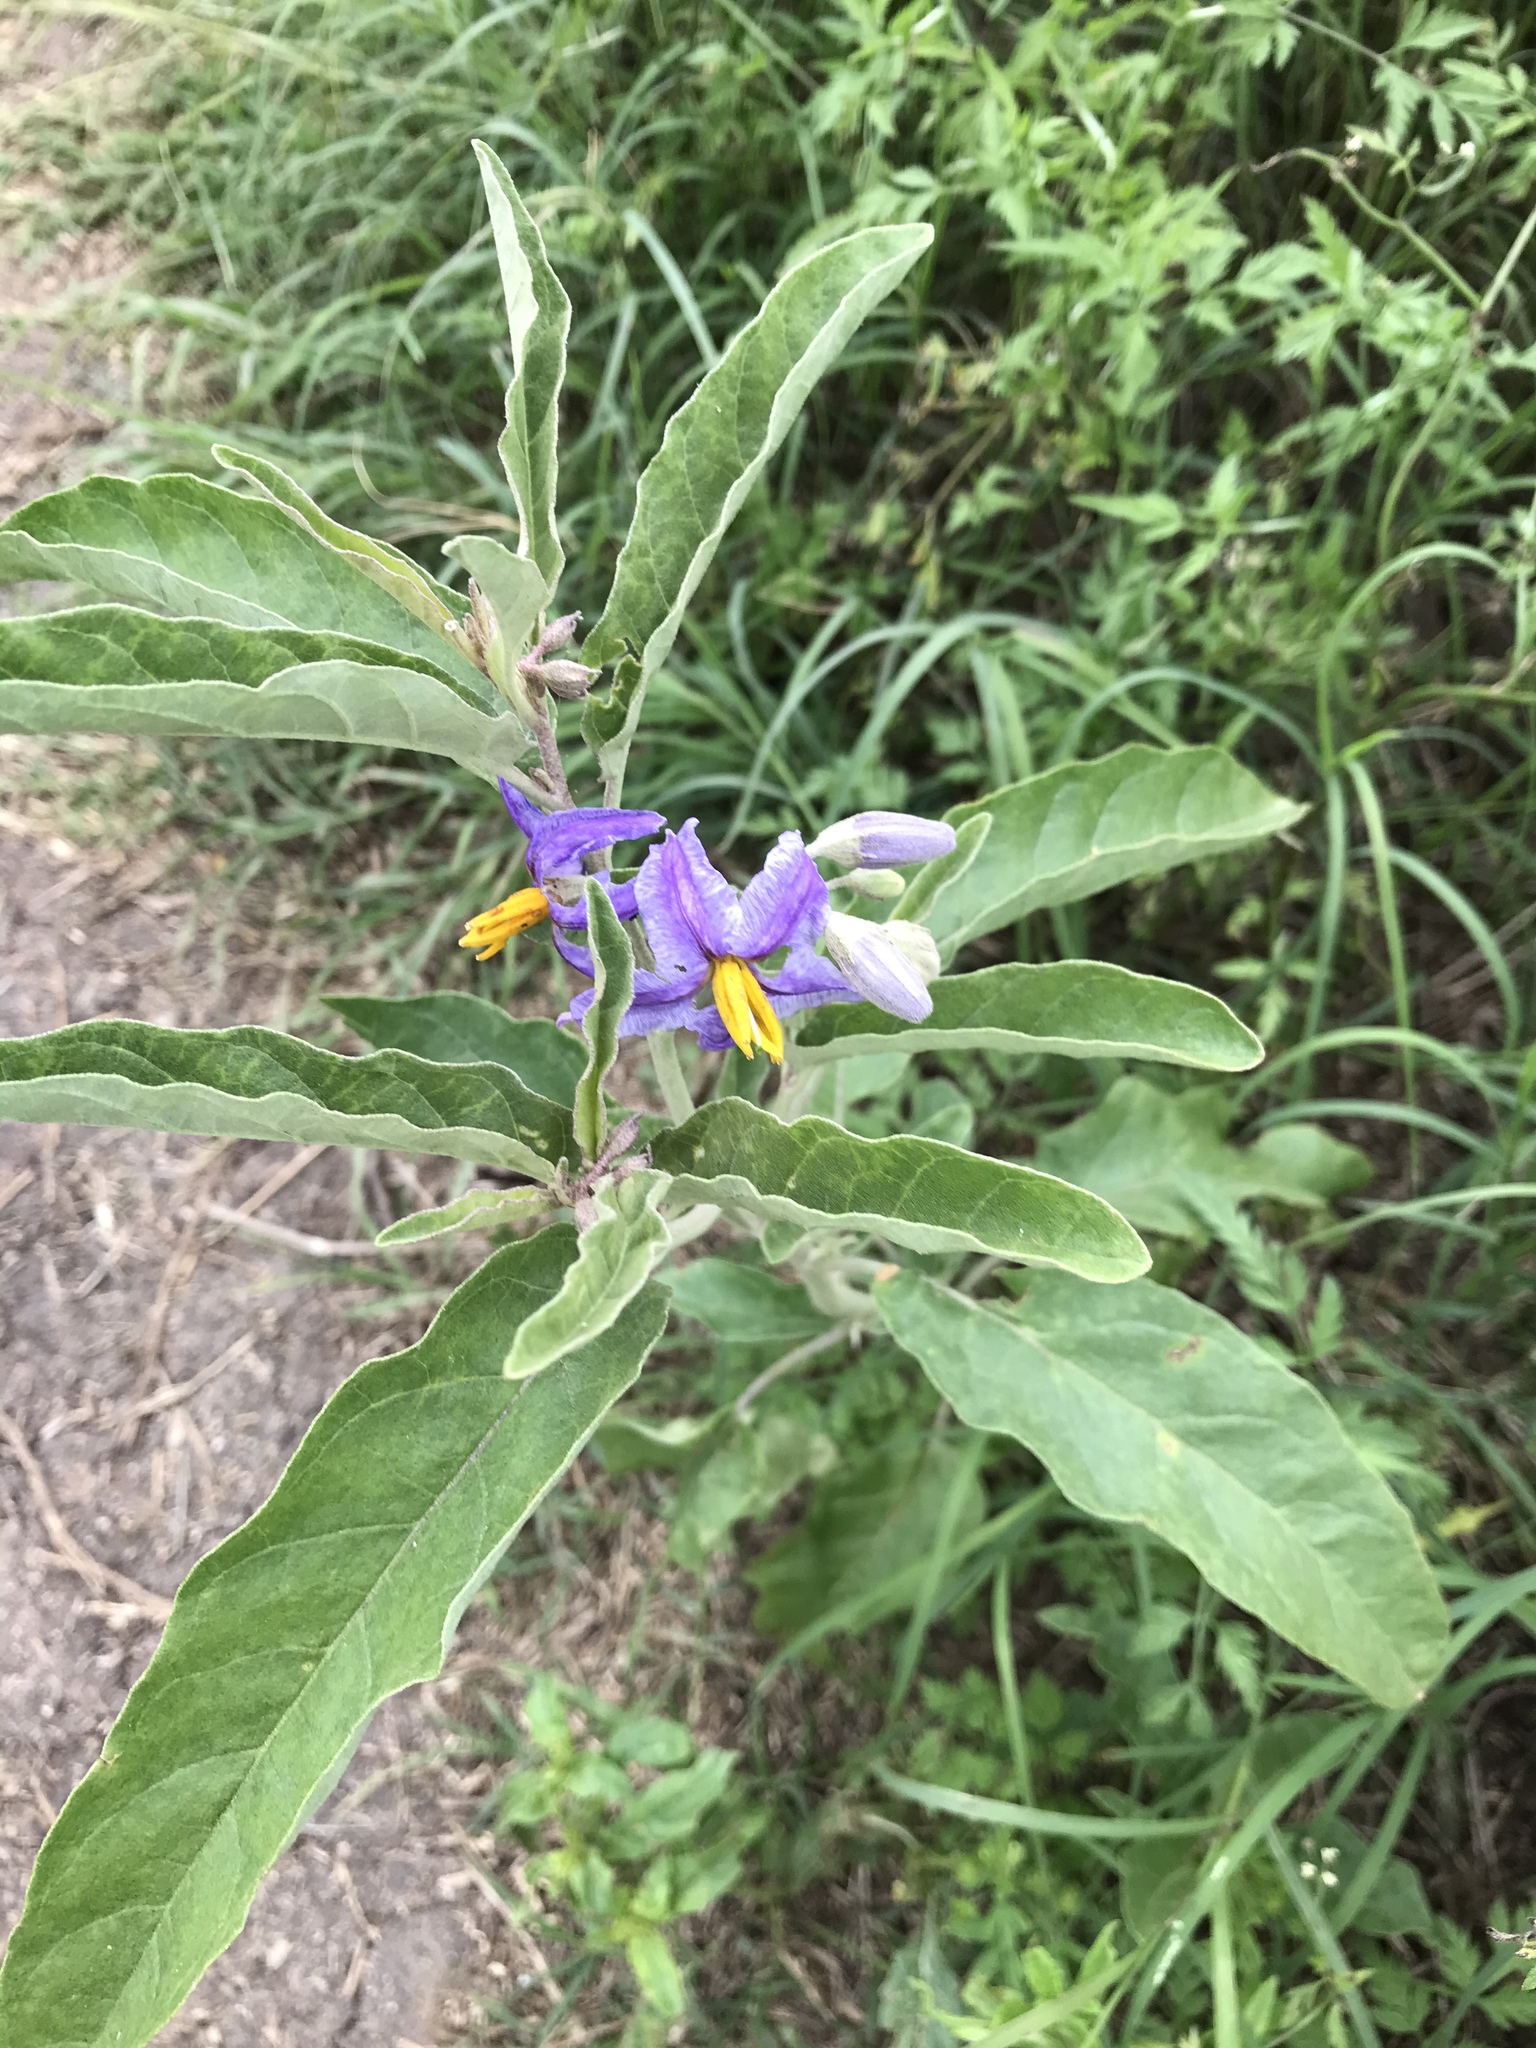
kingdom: Plantae
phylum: Tracheophyta
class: Magnoliopsida
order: Solanales
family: Solanaceae
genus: Solanum
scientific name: Solanum elaeagnifolium
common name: Silverleaf nightshade
